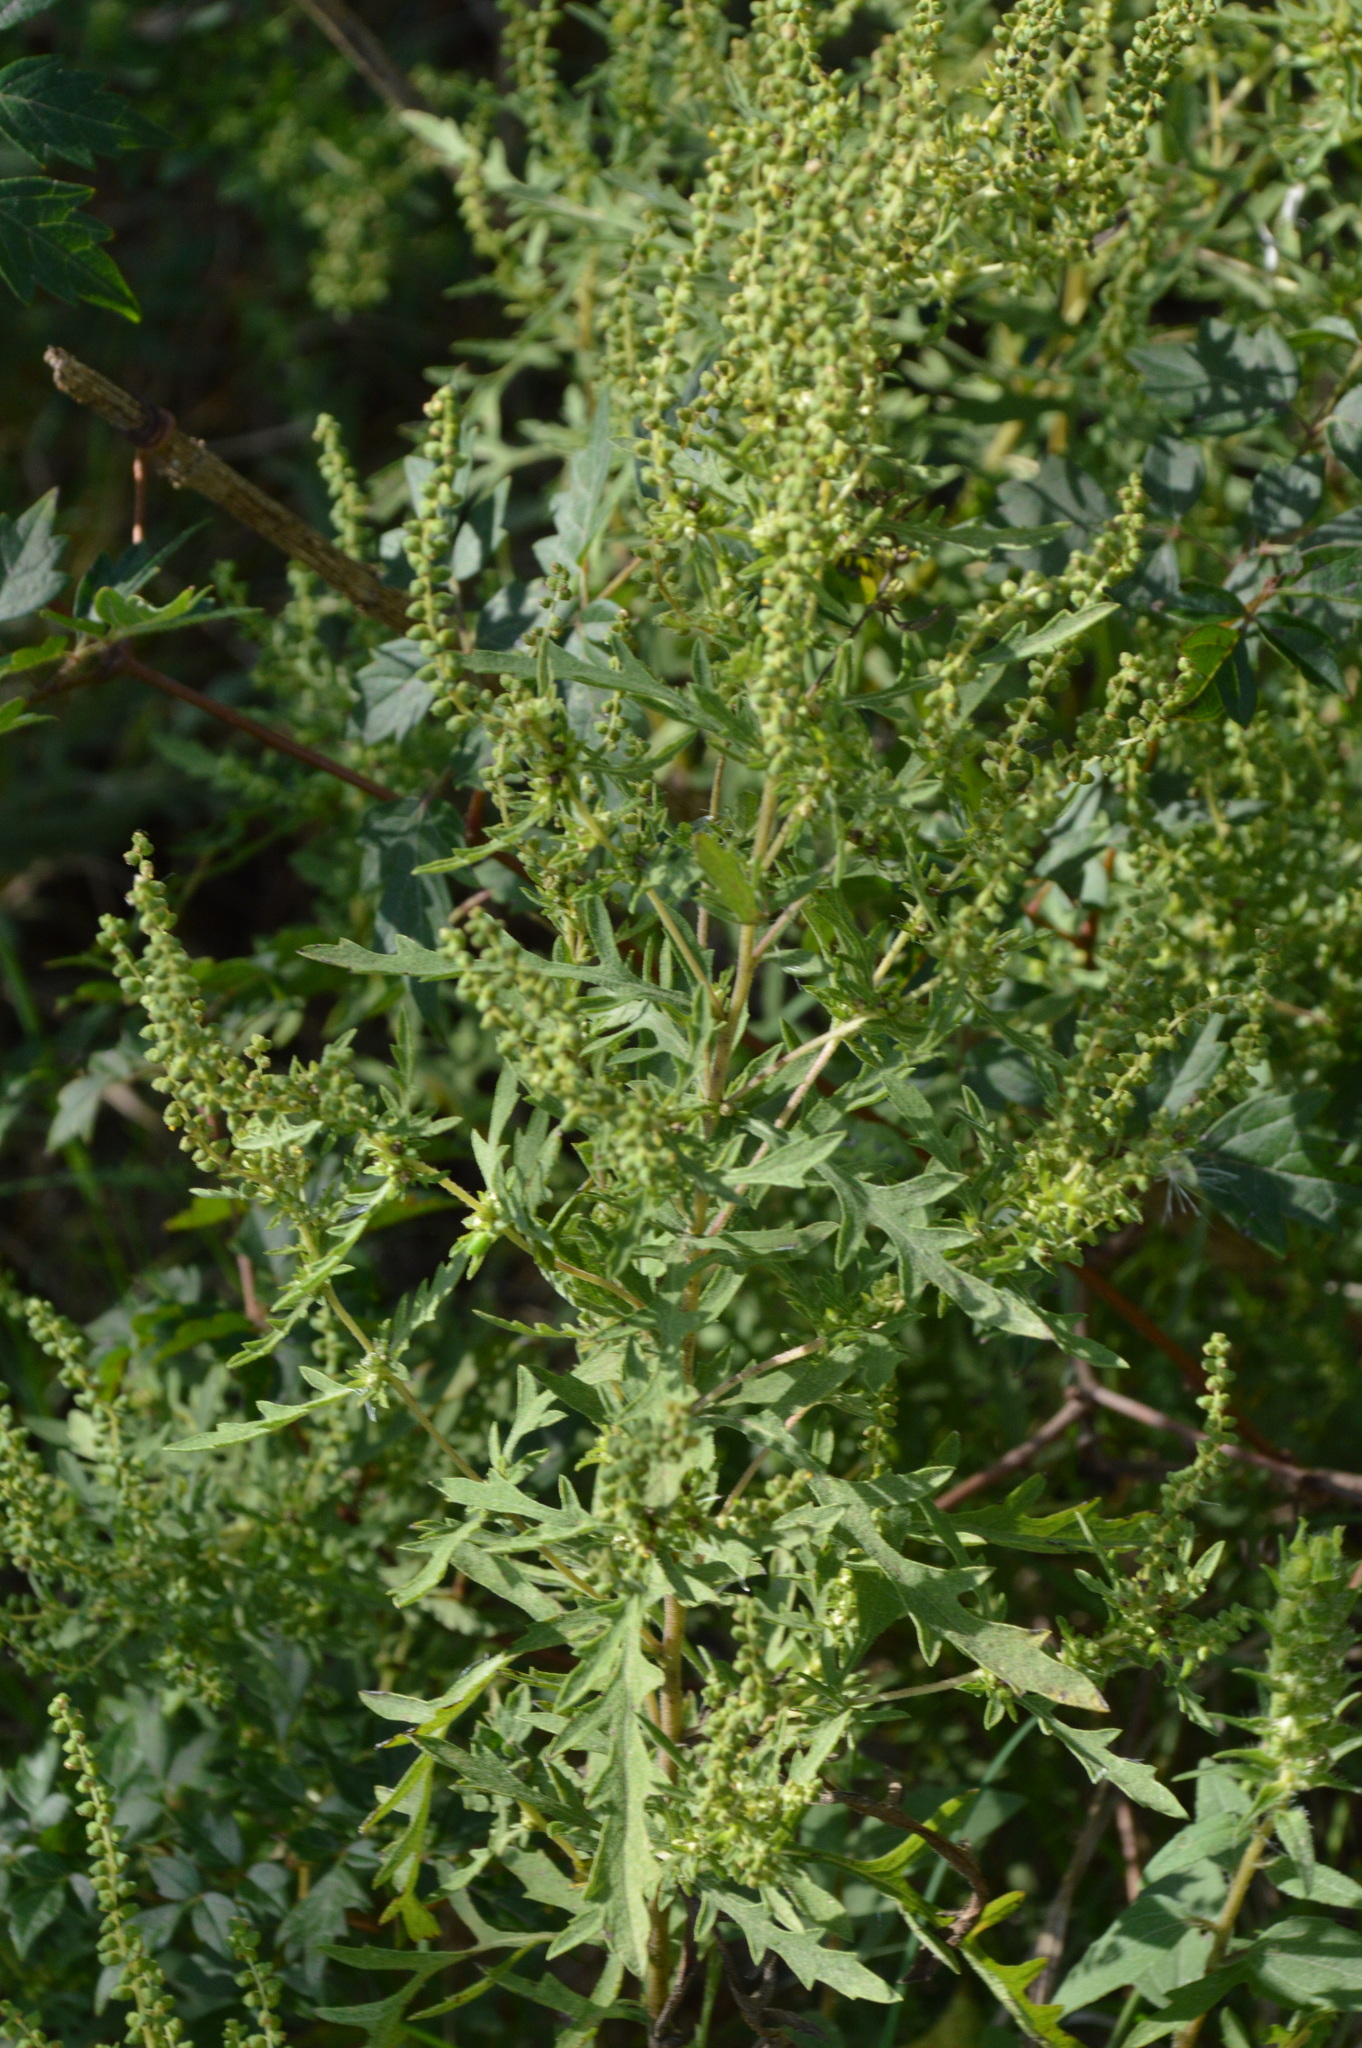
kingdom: Plantae
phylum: Tracheophyta
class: Magnoliopsida
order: Asterales
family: Asteraceae
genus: Ambrosia
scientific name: Ambrosia psilostachya
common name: Perennial ragweed
